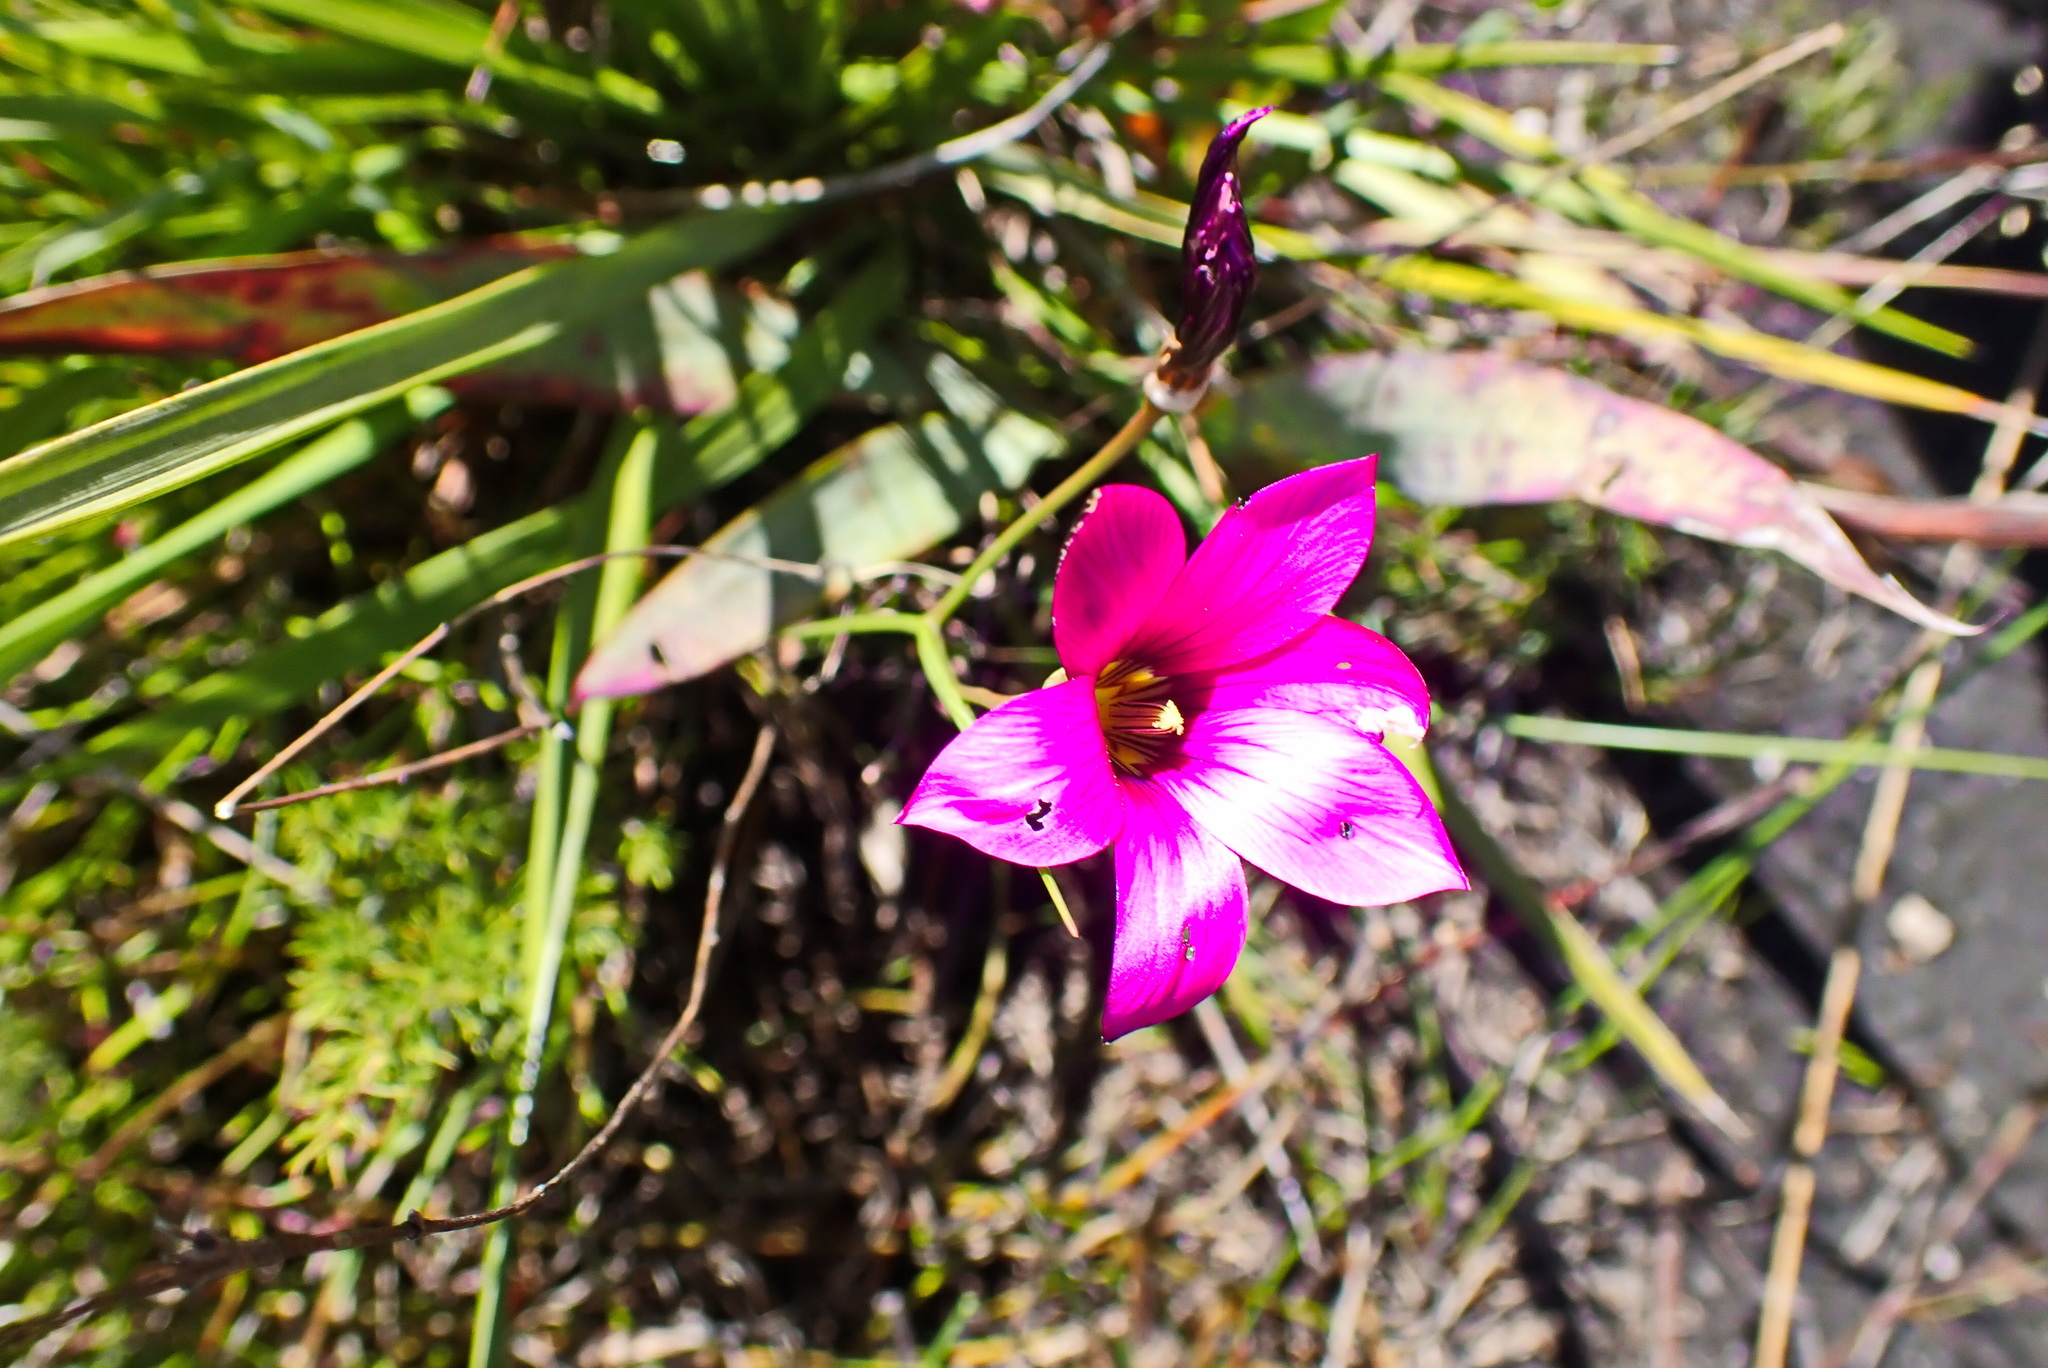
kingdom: Plantae
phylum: Tracheophyta
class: Liliopsida
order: Asparagales
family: Iridaceae
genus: Romulea
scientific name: Romulea dichotoma
